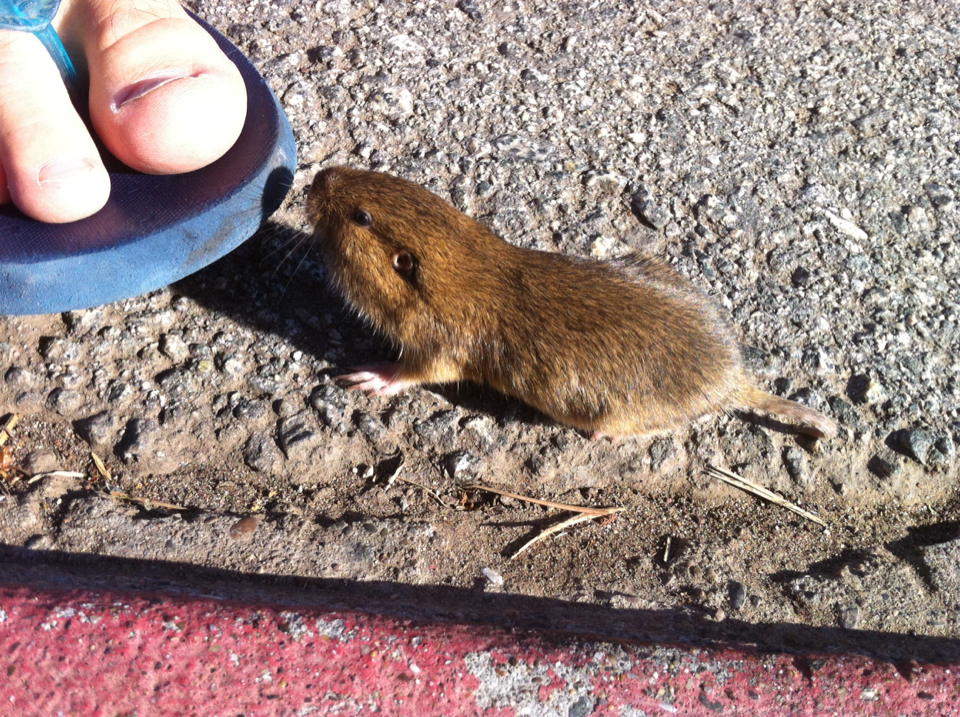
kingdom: Animalia
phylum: Chordata
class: Mammalia
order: Rodentia
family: Geomyidae
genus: Thomomys
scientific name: Thomomys bottae
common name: Botta's pocket gopher
